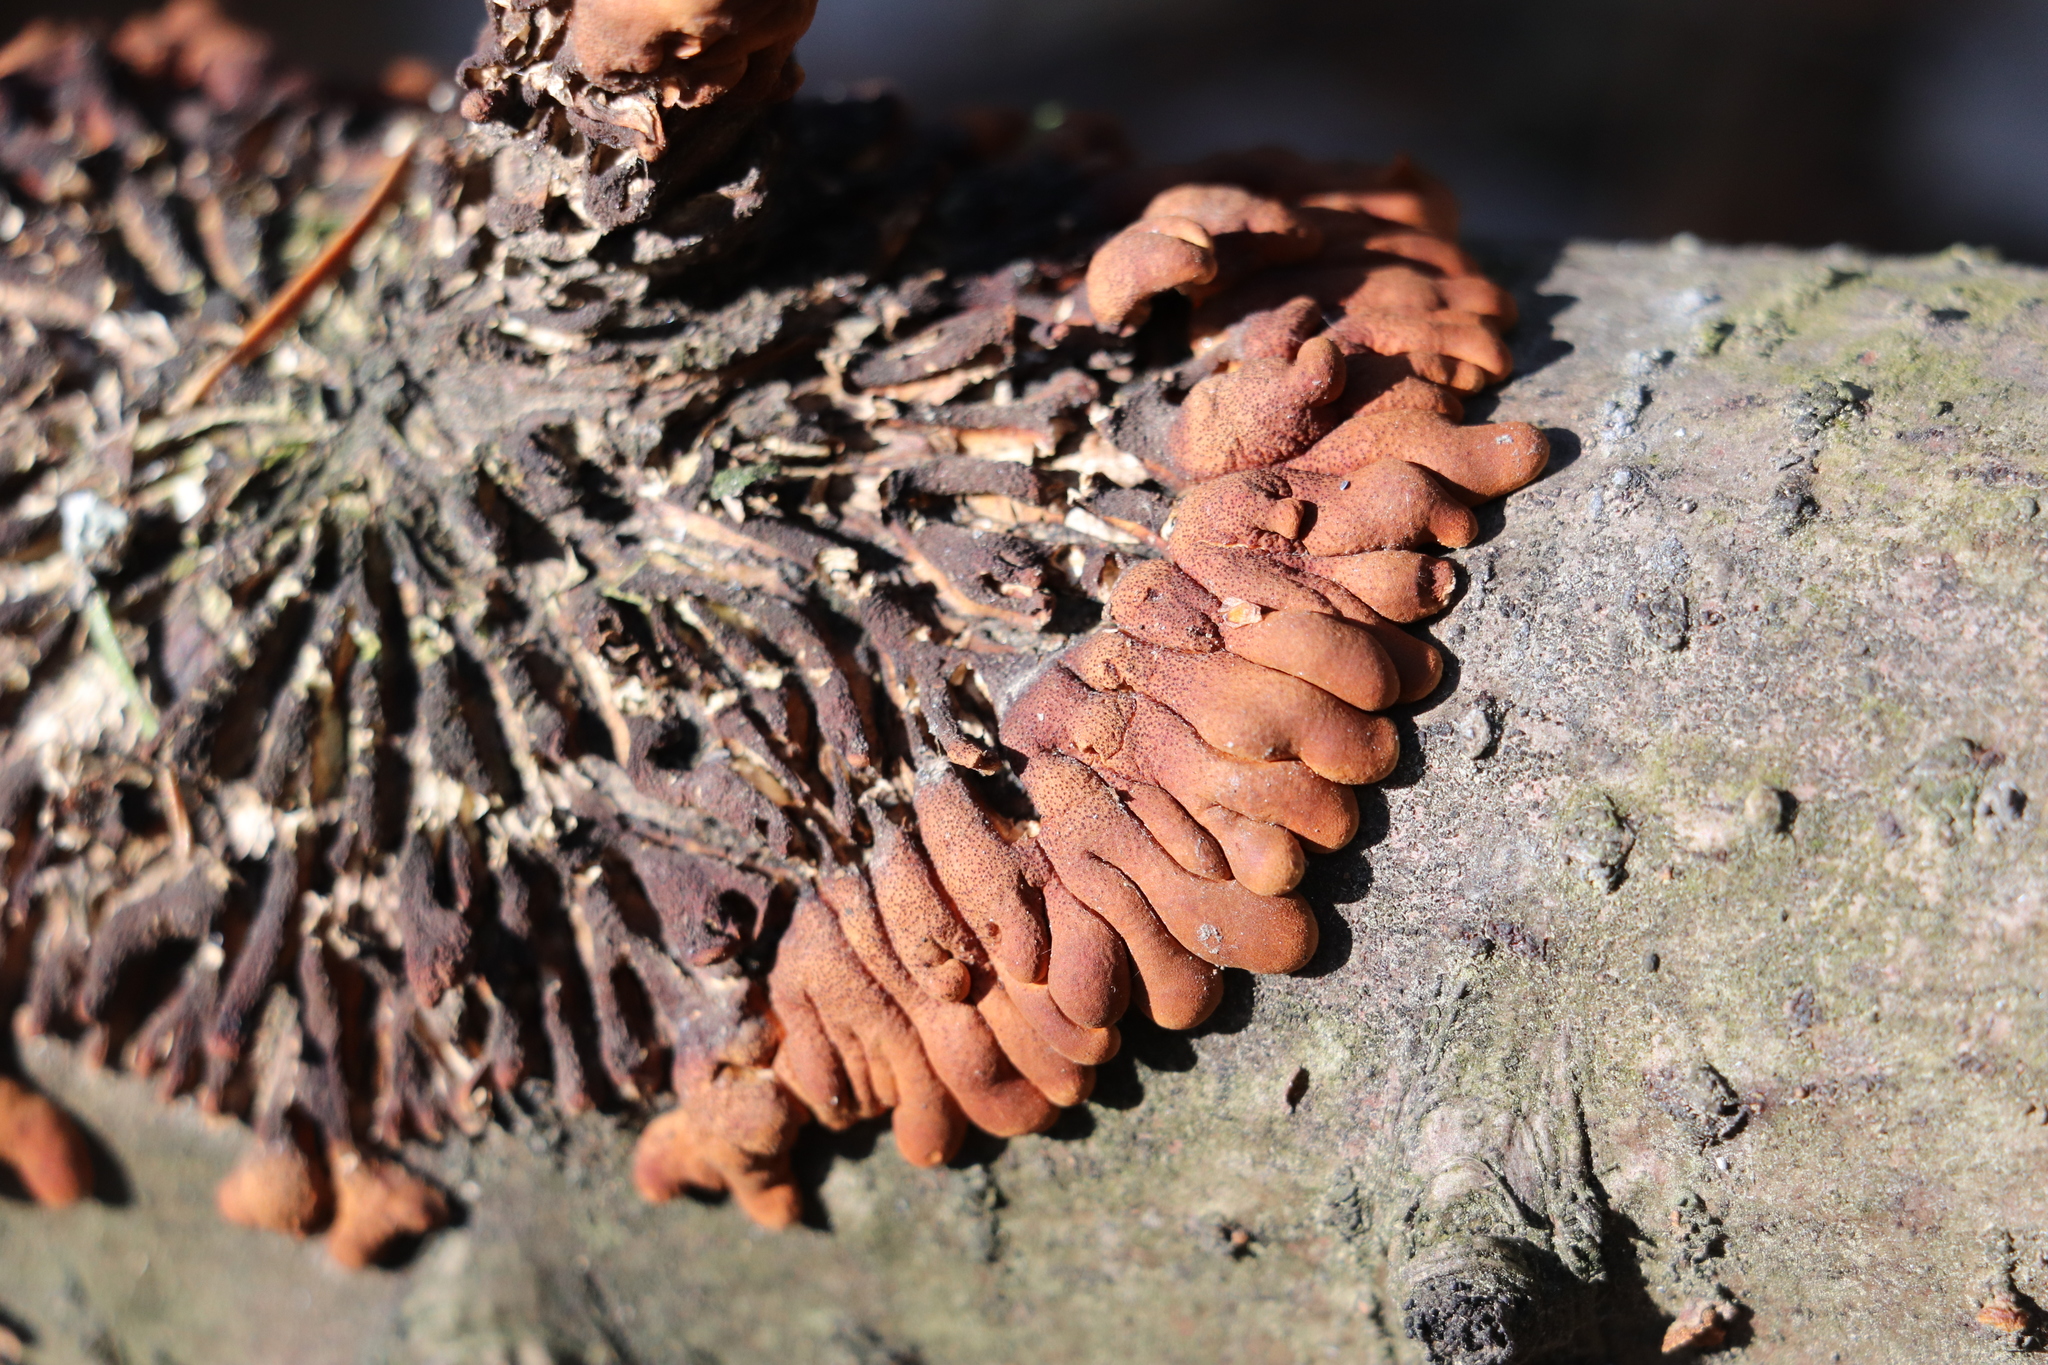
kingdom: Fungi
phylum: Ascomycota
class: Sordariomycetes
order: Hypocreales
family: Hypocreaceae
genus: Hypocreopsis
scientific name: Hypocreopsis lichenoides
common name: Willow gloves
